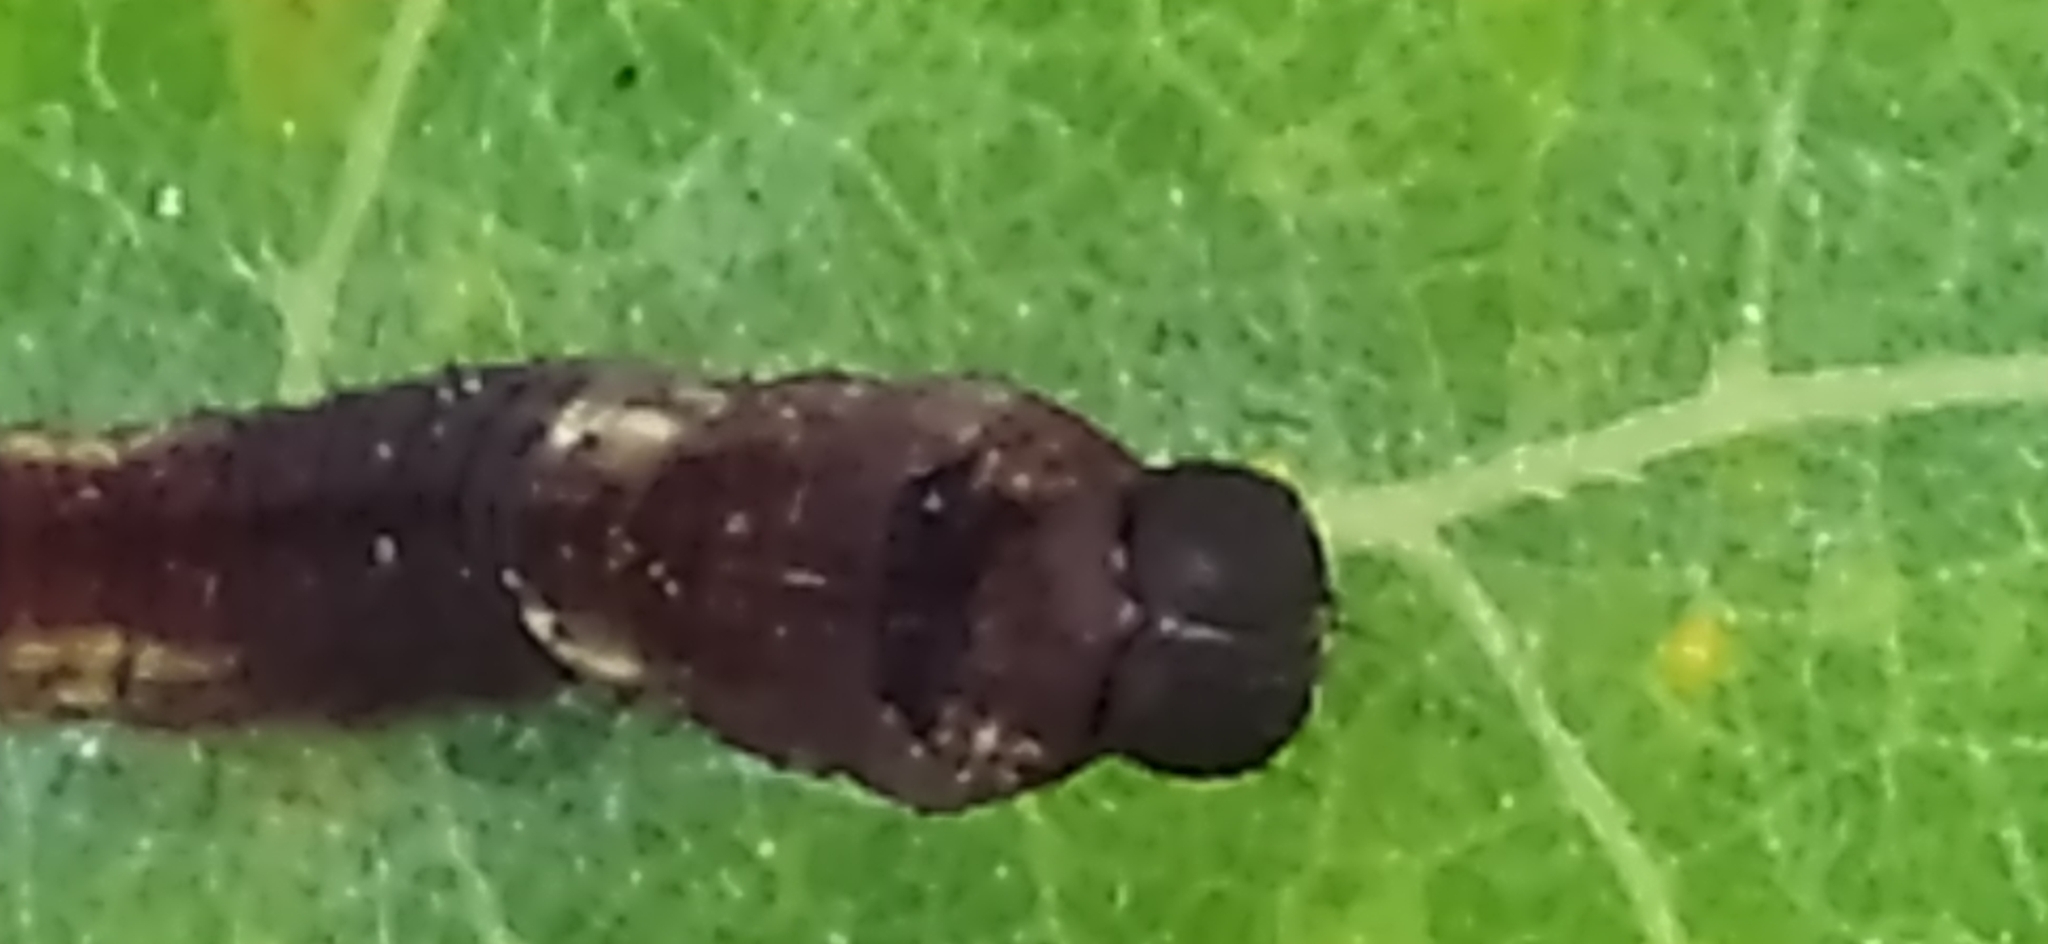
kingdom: Animalia
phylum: Arthropoda
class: Insecta
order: Lepidoptera
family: Notodontidae
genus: Cerura
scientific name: Cerura vinula
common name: Puss moth
